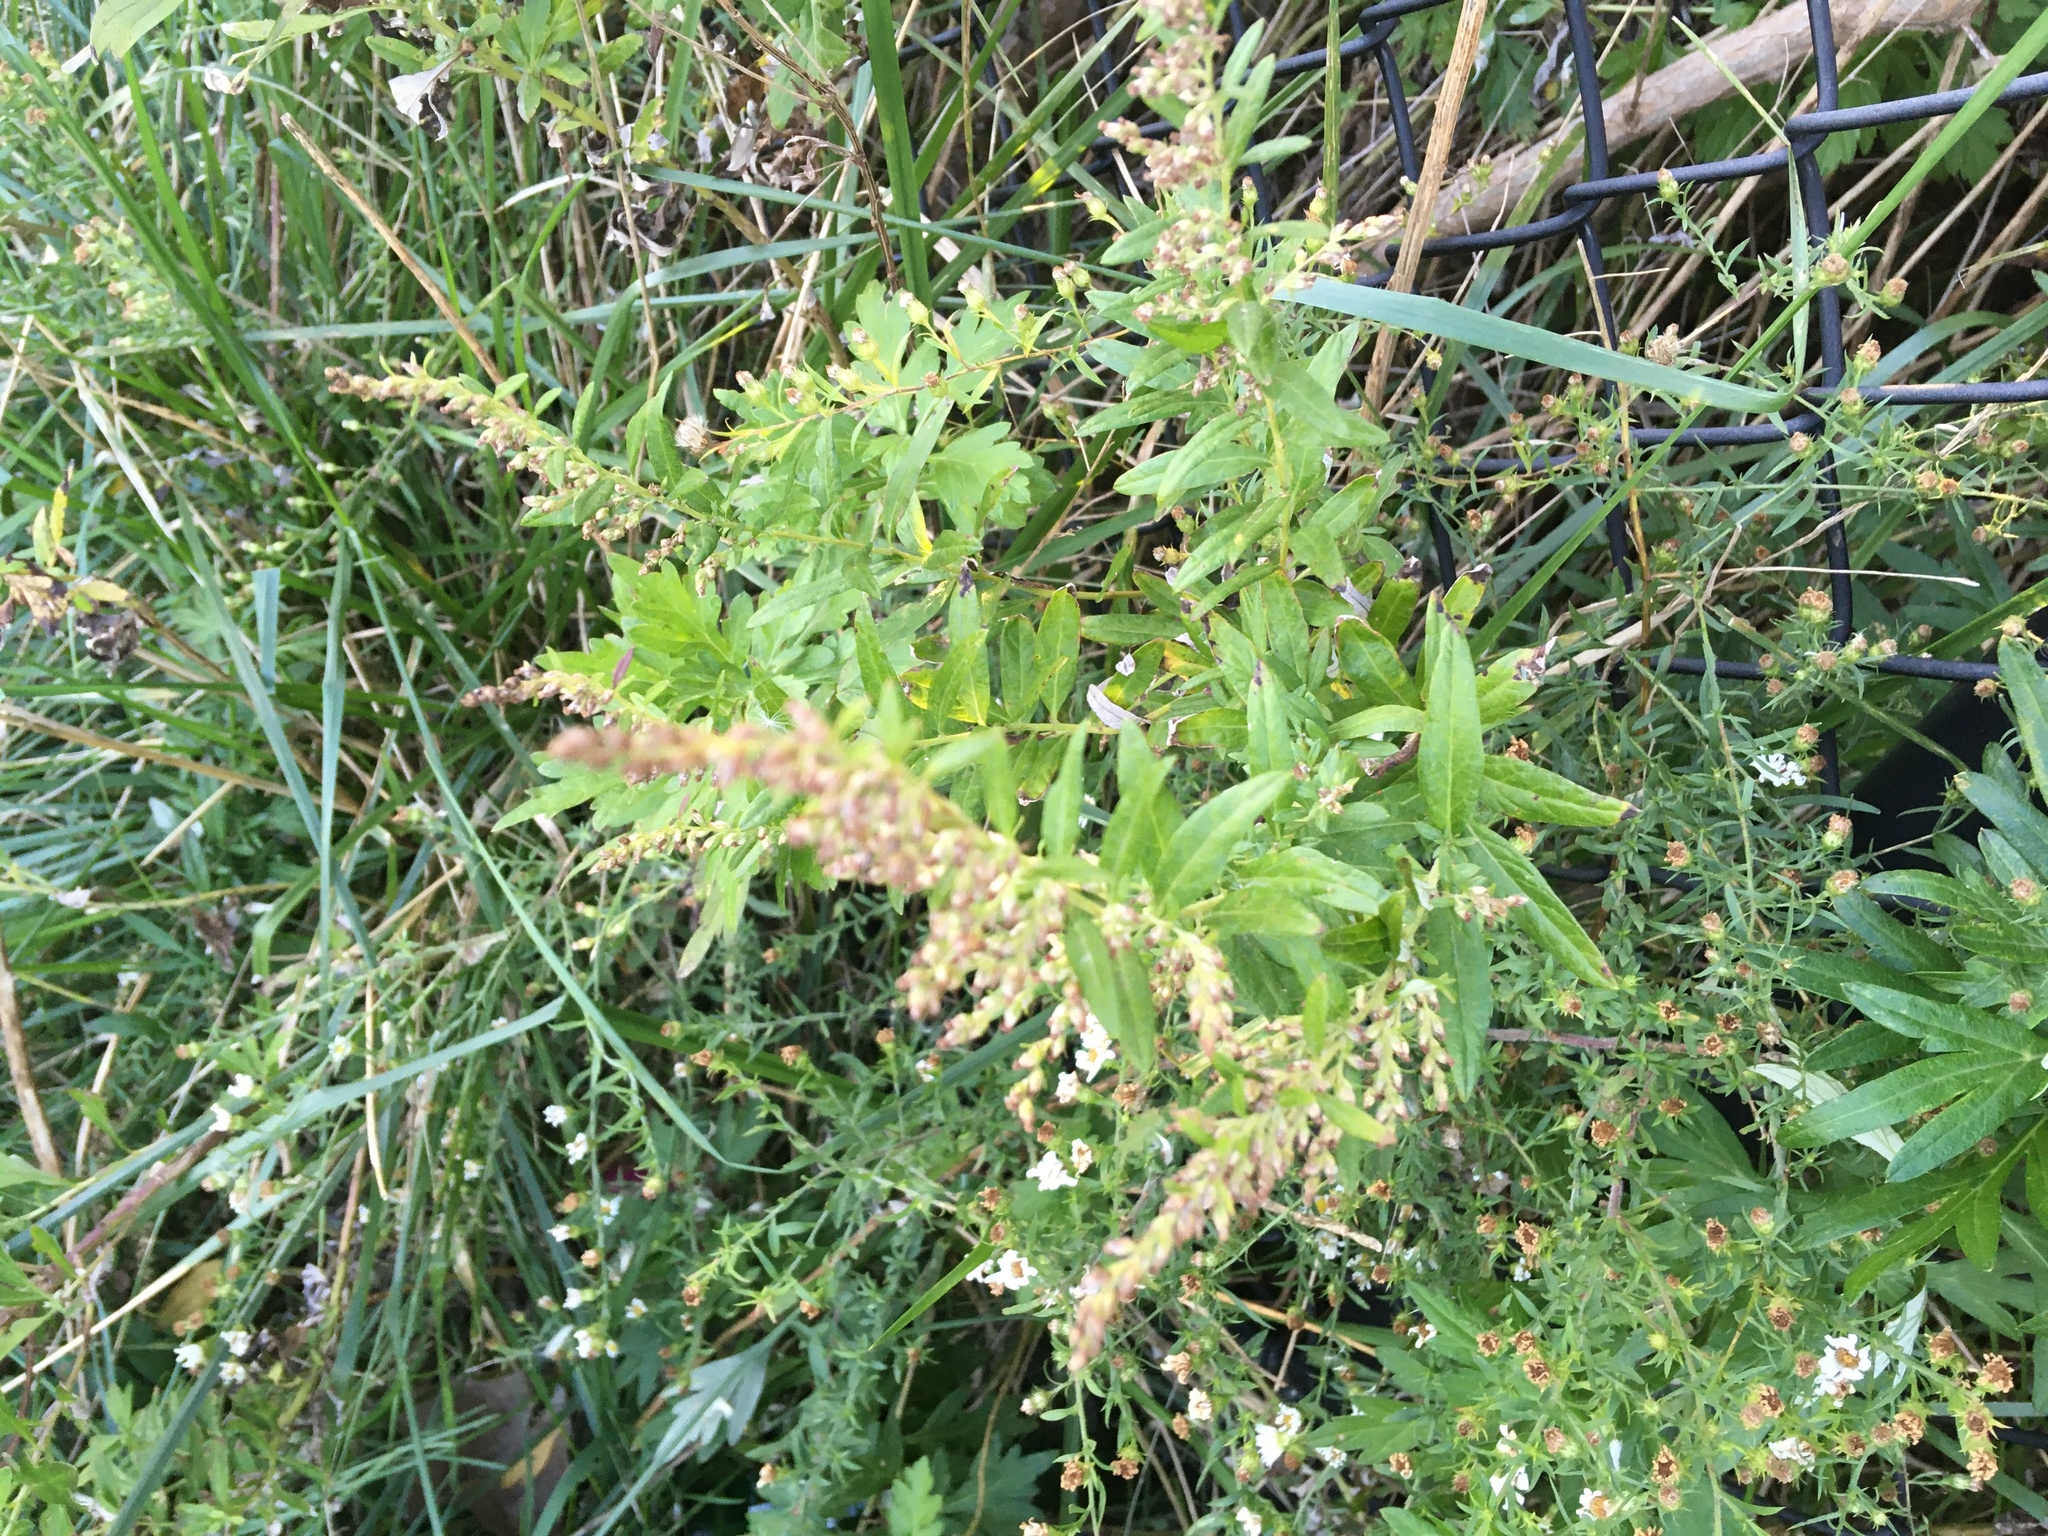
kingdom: Plantae
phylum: Tracheophyta
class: Magnoliopsida
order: Asterales
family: Asteraceae
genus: Artemisia
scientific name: Artemisia vulgaris
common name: Mugwort
